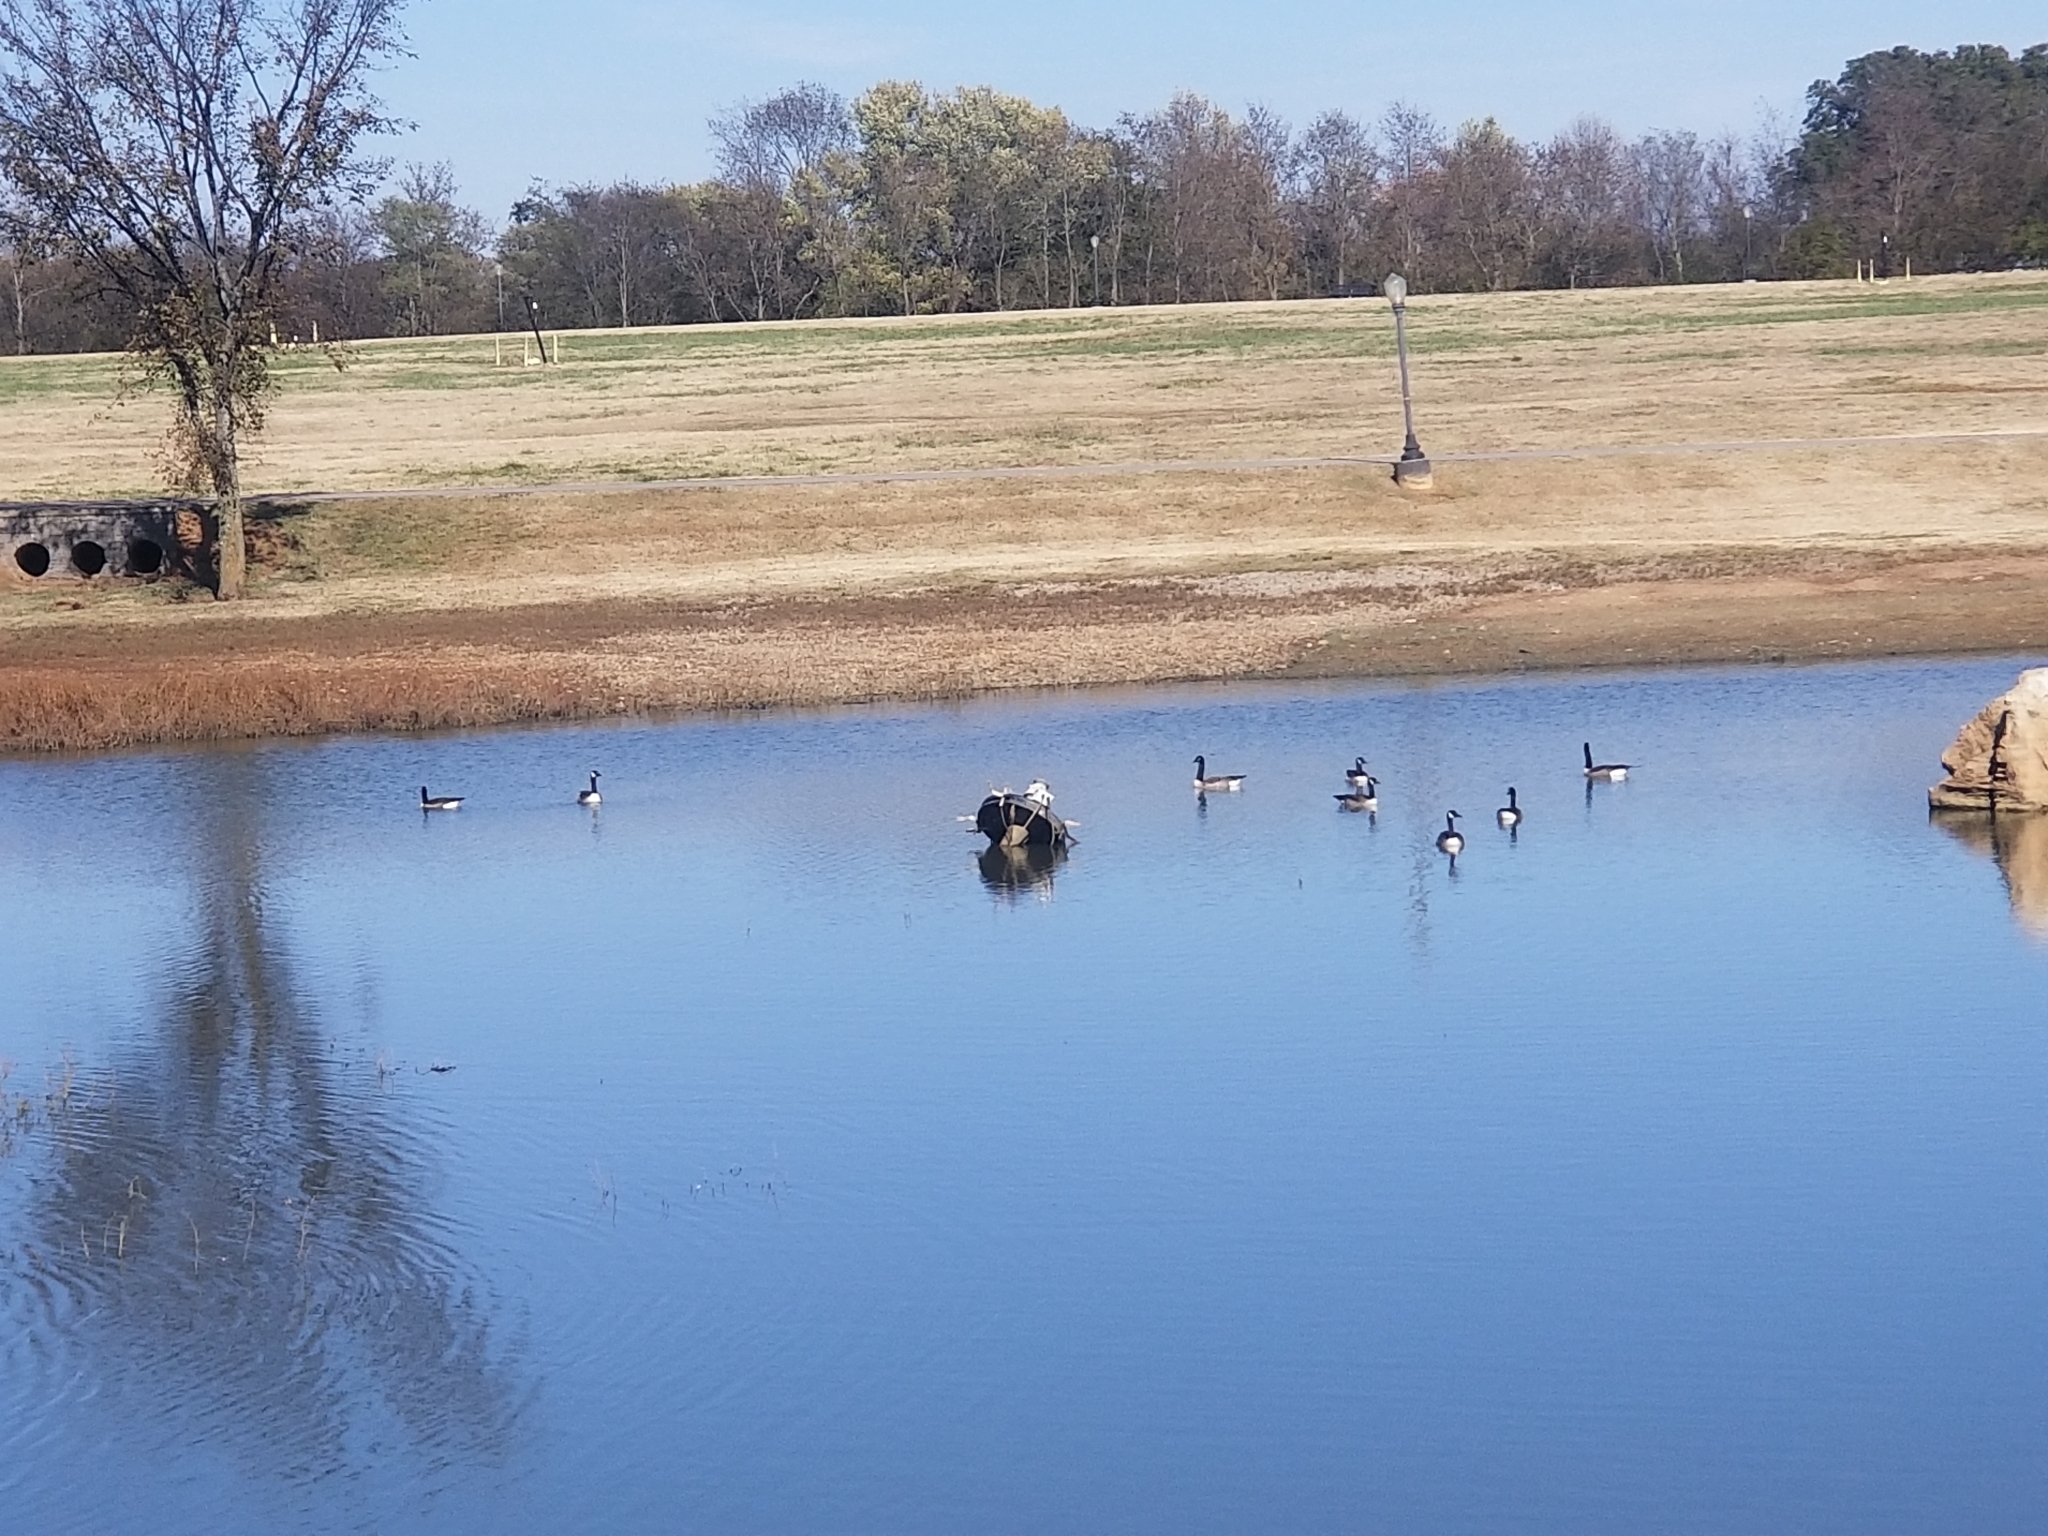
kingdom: Animalia
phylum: Chordata
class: Aves
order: Anseriformes
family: Anatidae
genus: Branta
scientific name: Branta canadensis
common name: Canada goose
